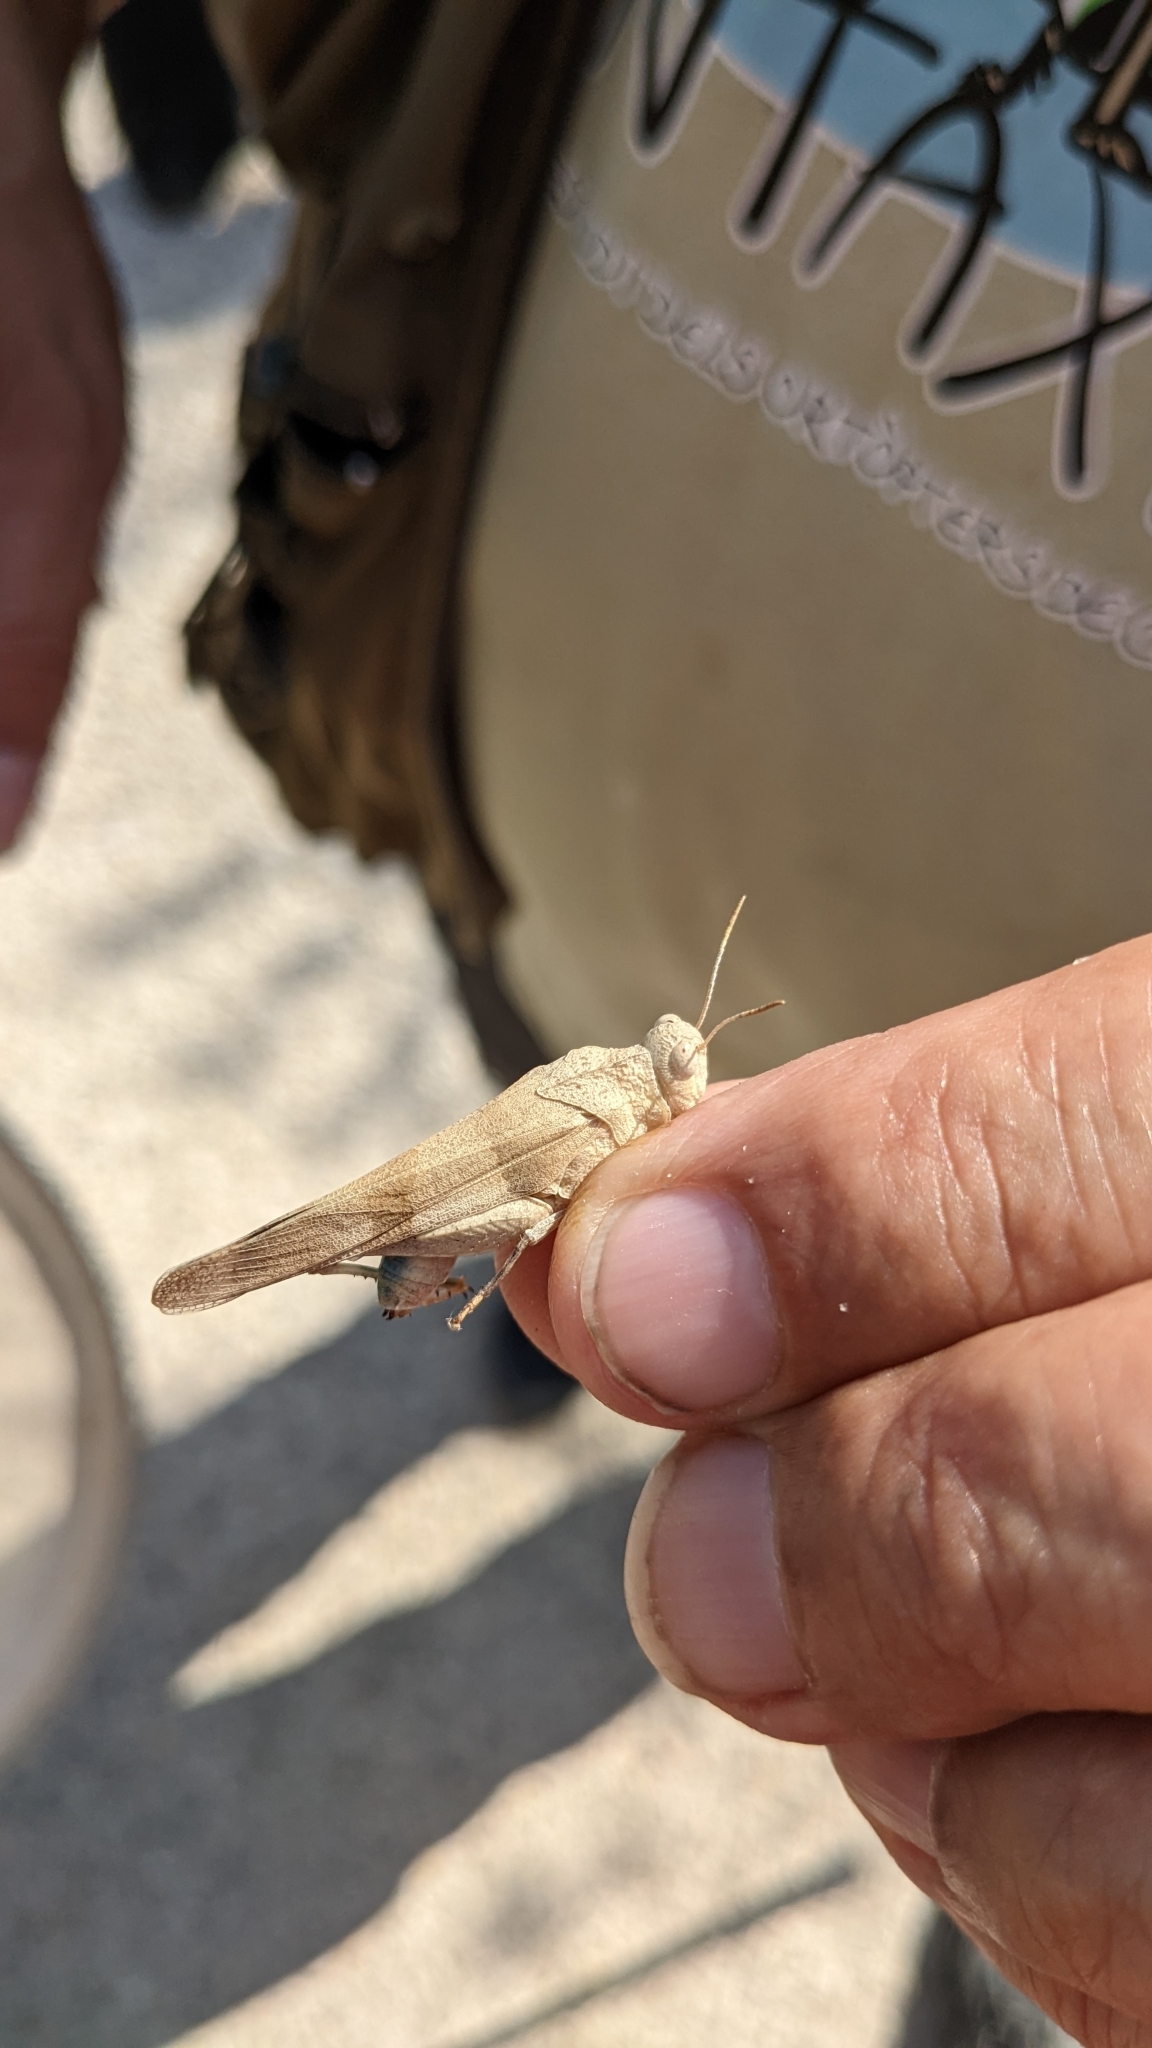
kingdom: Animalia
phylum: Arthropoda
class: Insecta
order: Orthoptera
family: Acrididae
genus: Oedipoda
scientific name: Oedipoda charpentieri
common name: Western band-winged grasshopper
